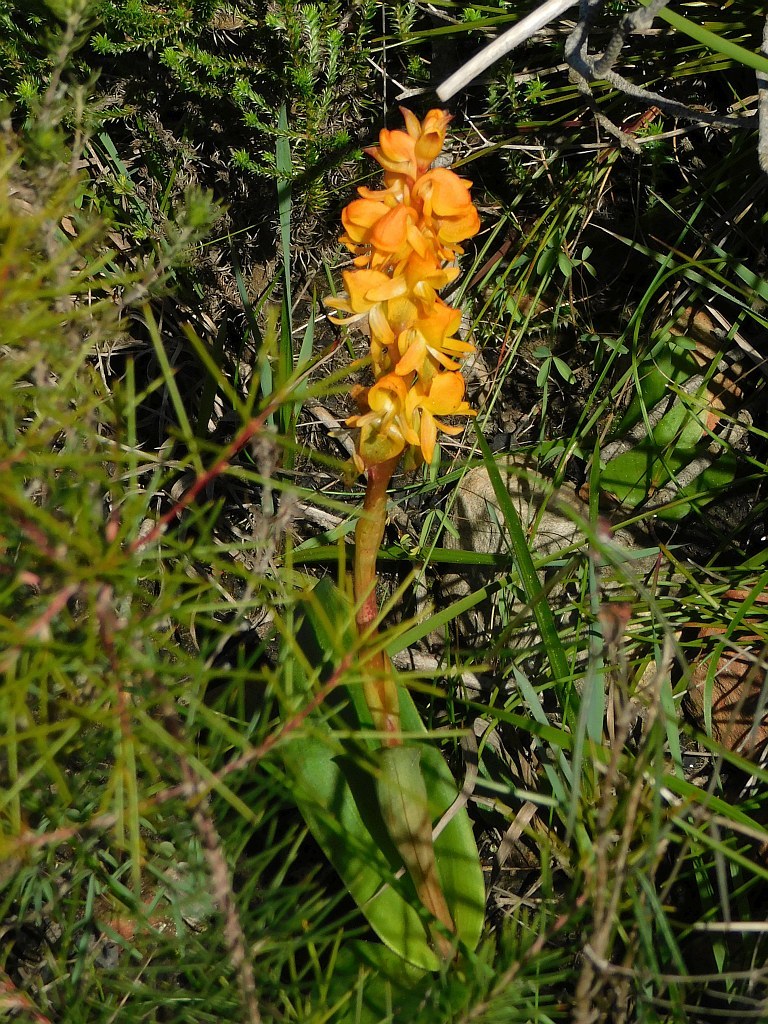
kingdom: Plantae
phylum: Tracheophyta
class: Liliopsida
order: Asparagales
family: Orchidaceae
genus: Satyrium
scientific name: Satyrium coriifolium
